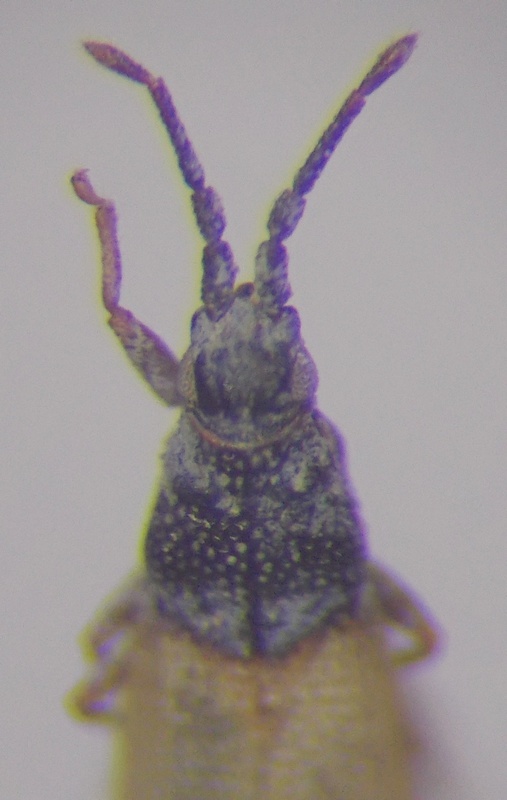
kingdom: Animalia
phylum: Arthropoda
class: Insecta
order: Hemiptera
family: Tingidae
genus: Agramma
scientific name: Agramma blandulum
